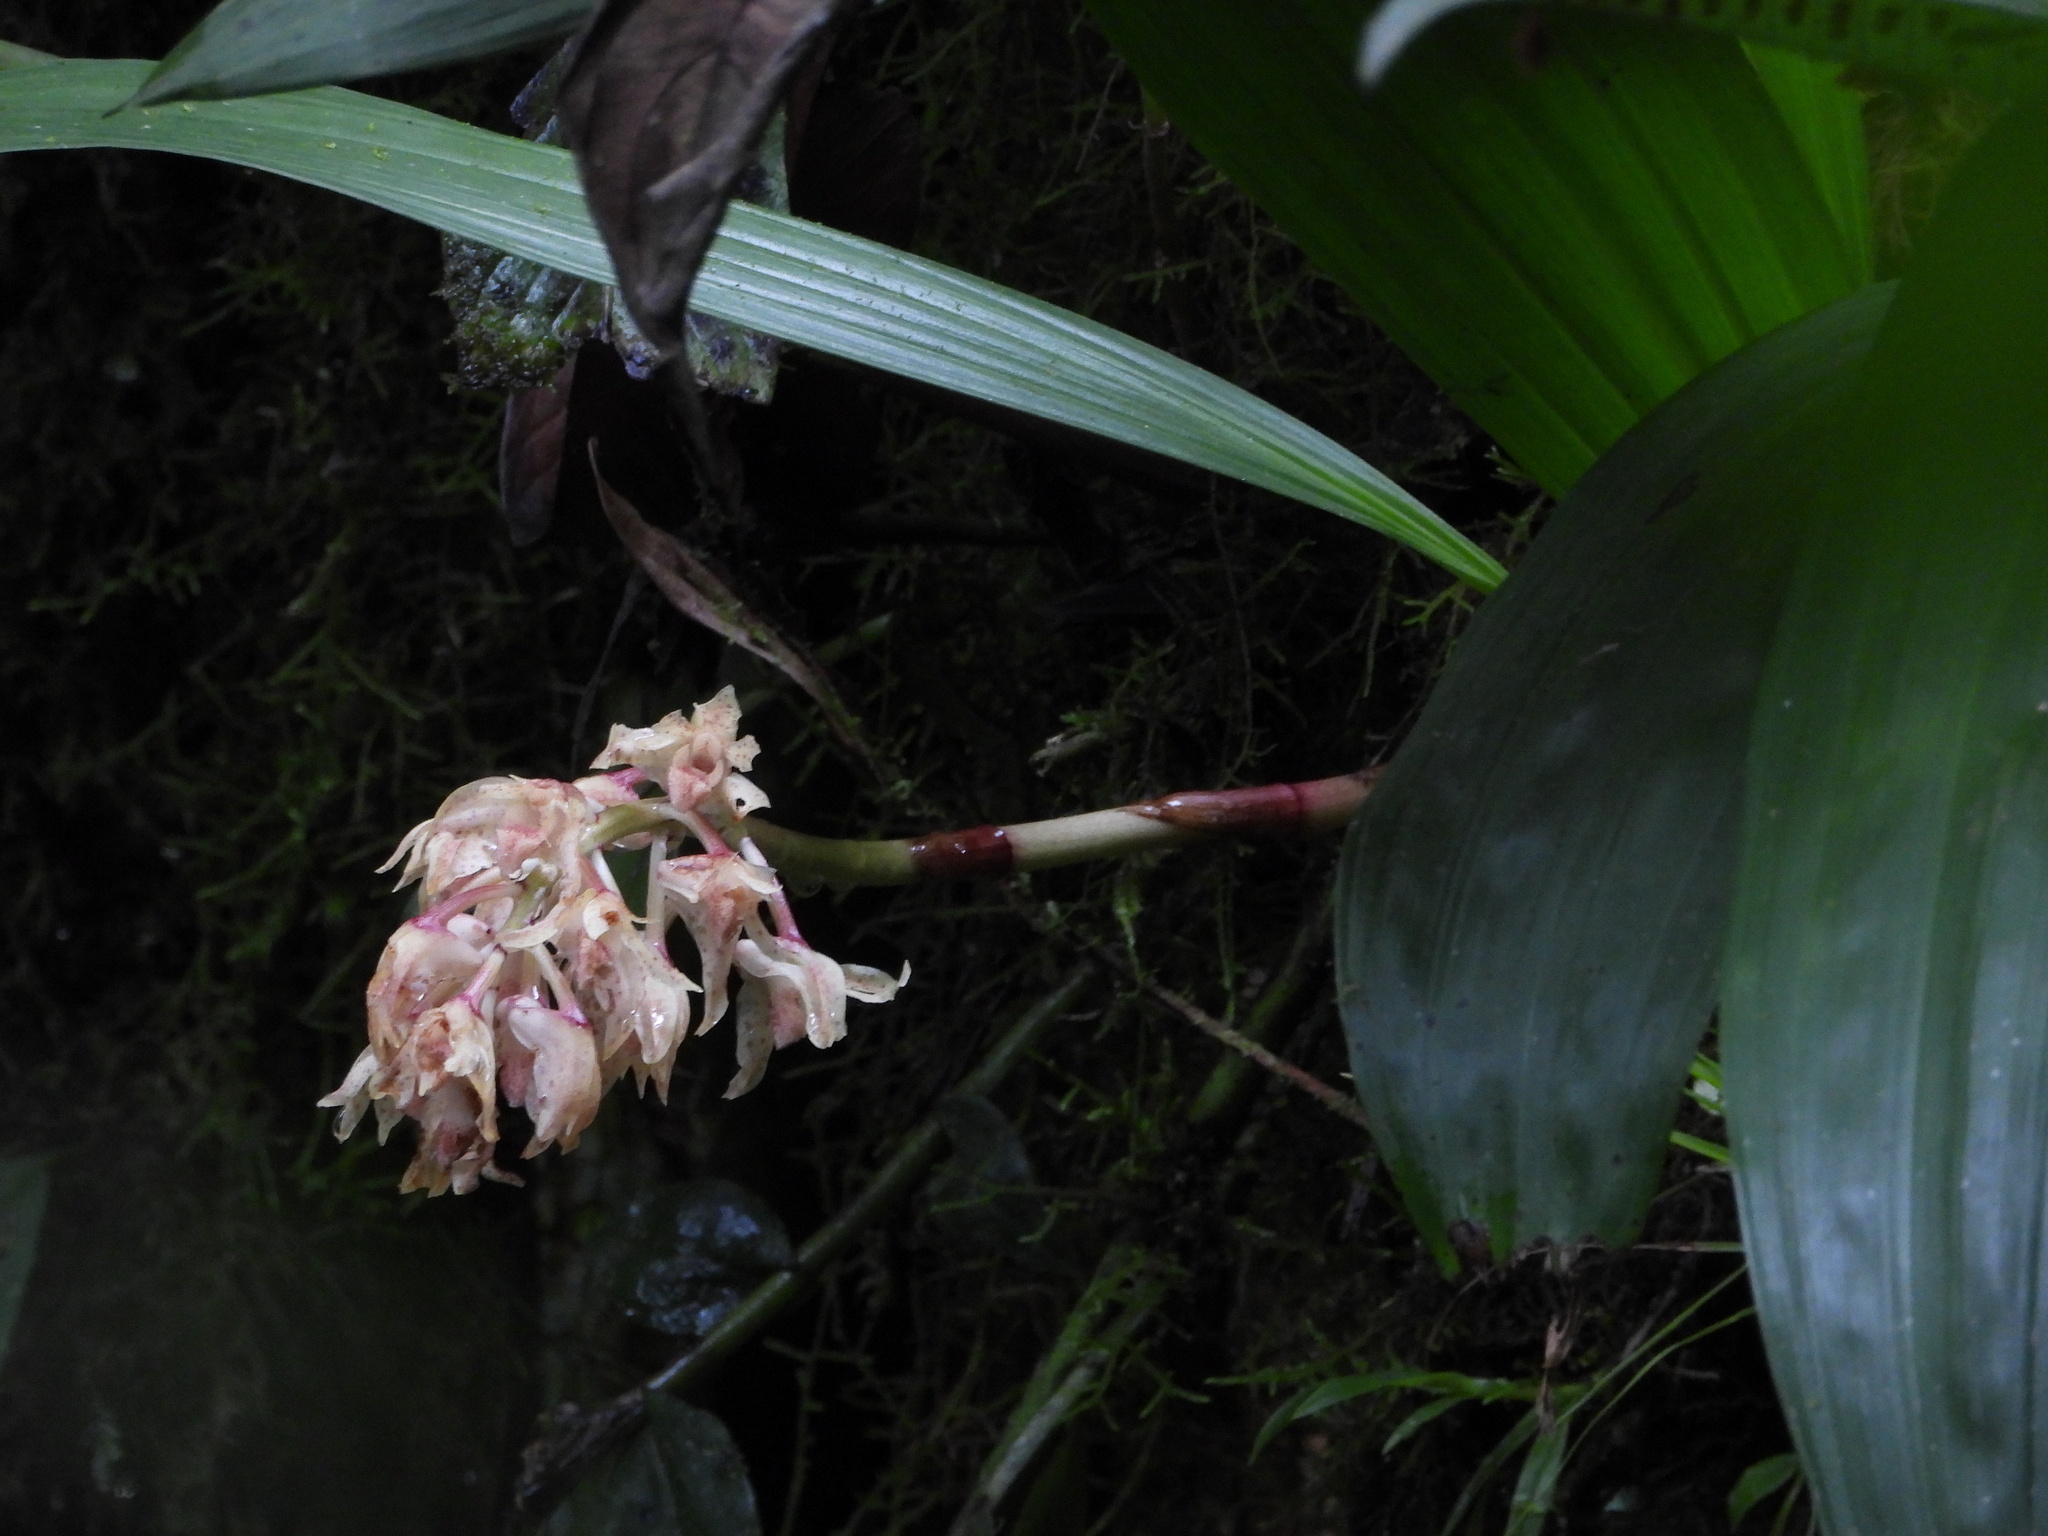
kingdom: Plantae
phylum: Tracheophyta
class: Liliopsida
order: Asparagales
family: Orchidaceae
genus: Xylobium
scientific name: Xylobium leontoglossum
